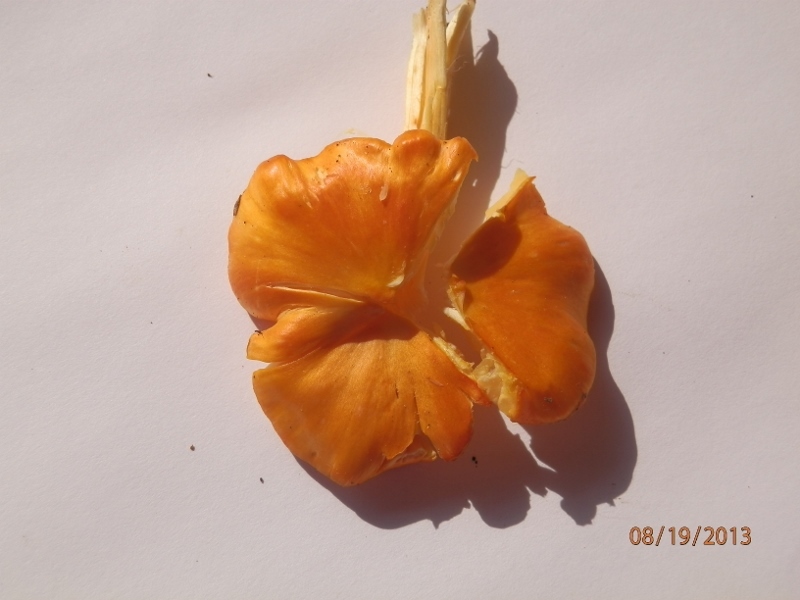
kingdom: Fungi
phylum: Basidiomycota
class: Agaricomycetes
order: Agaricales
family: Hygrophoraceae
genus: Hygrocybe
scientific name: Hygrocybe flavescens
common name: Golden waxy cap
